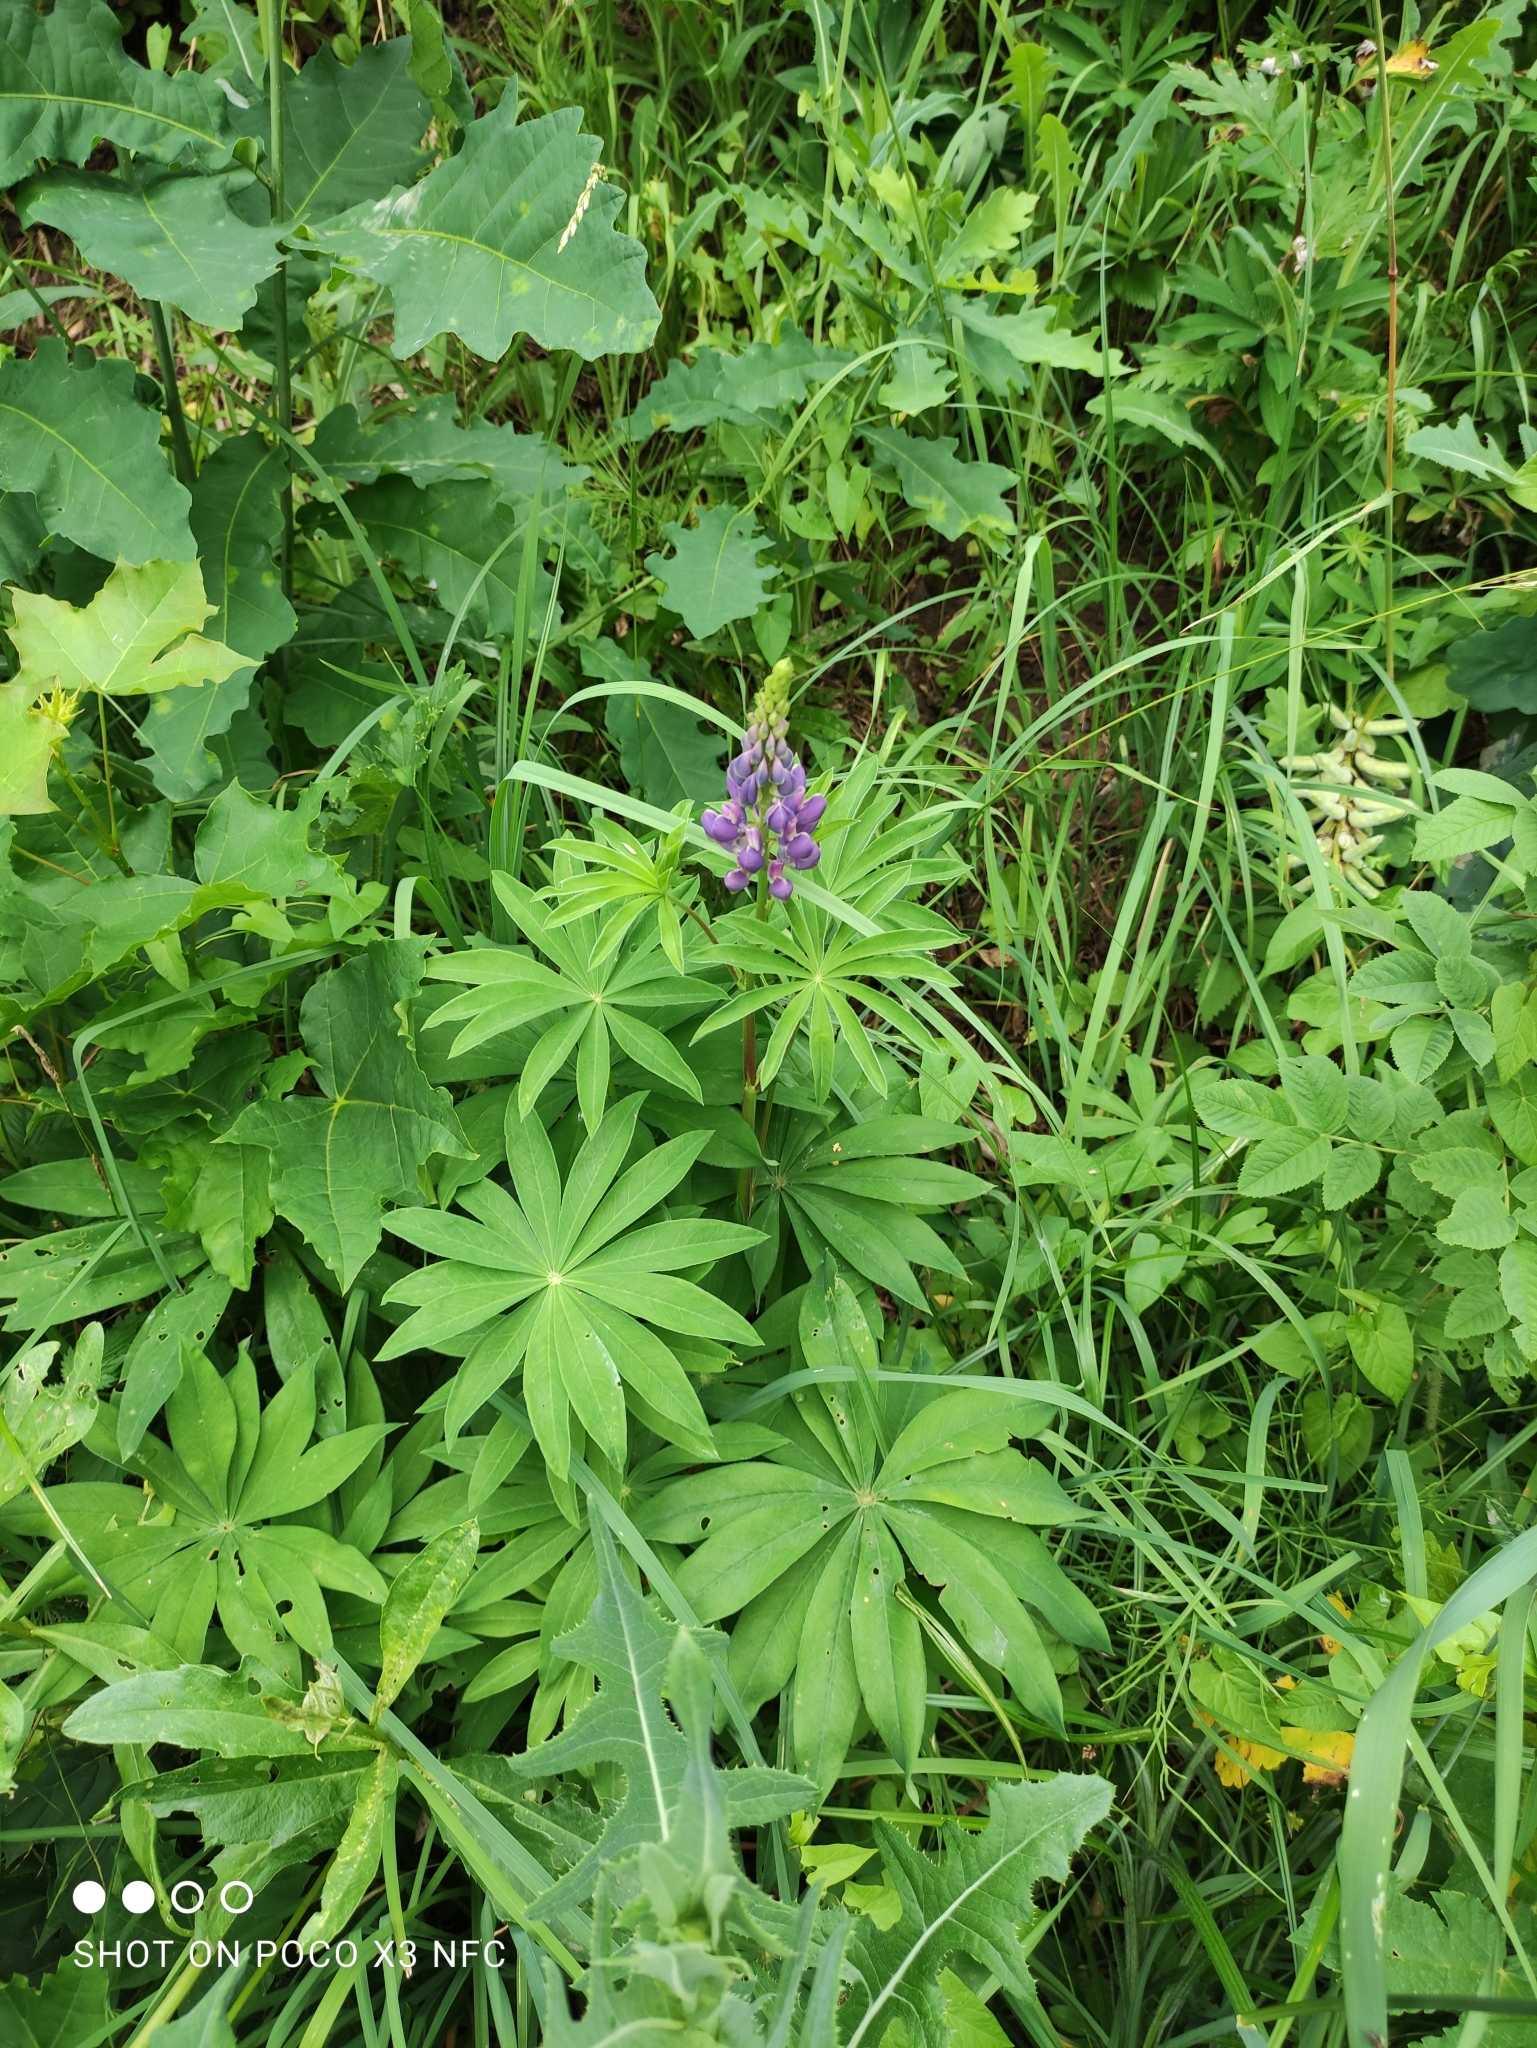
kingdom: Plantae
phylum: Tracheophyta
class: Magnoliopsida
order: Fabales
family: Fabaceae
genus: Lupinus
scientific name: Lupinus polyphyllus
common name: Garden lupin
